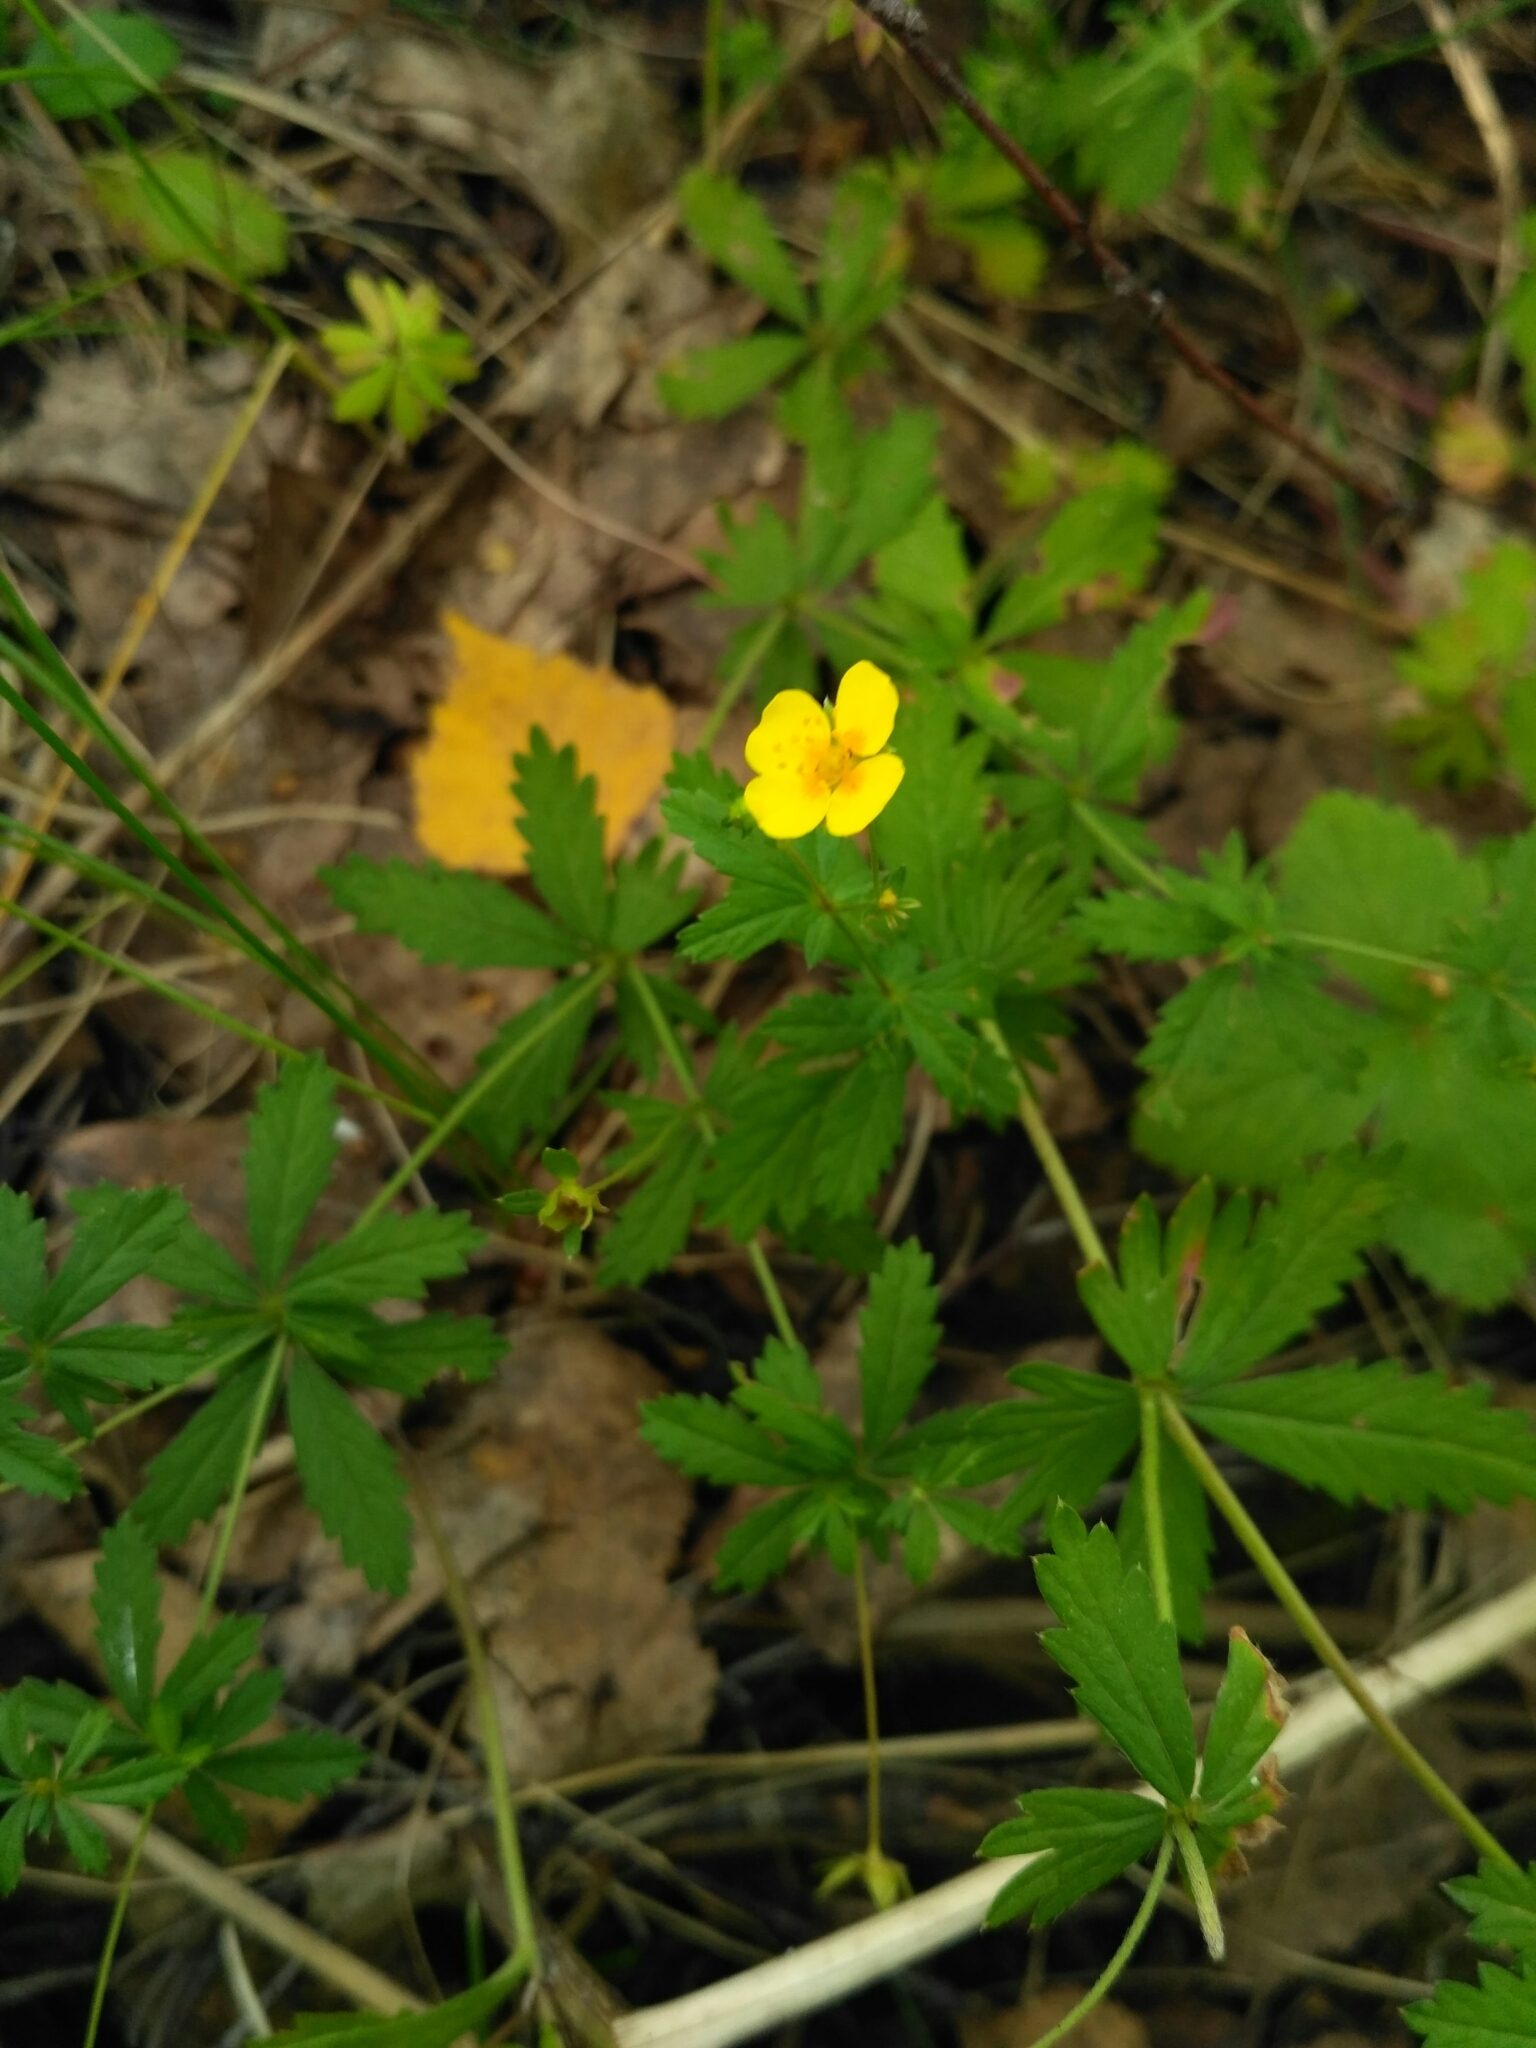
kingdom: Plantae
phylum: Tracheophyta
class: Magnoliopsida
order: Rosales
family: Rosaceae
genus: Potentilla
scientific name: Potentilla erecta
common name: Tormentil
